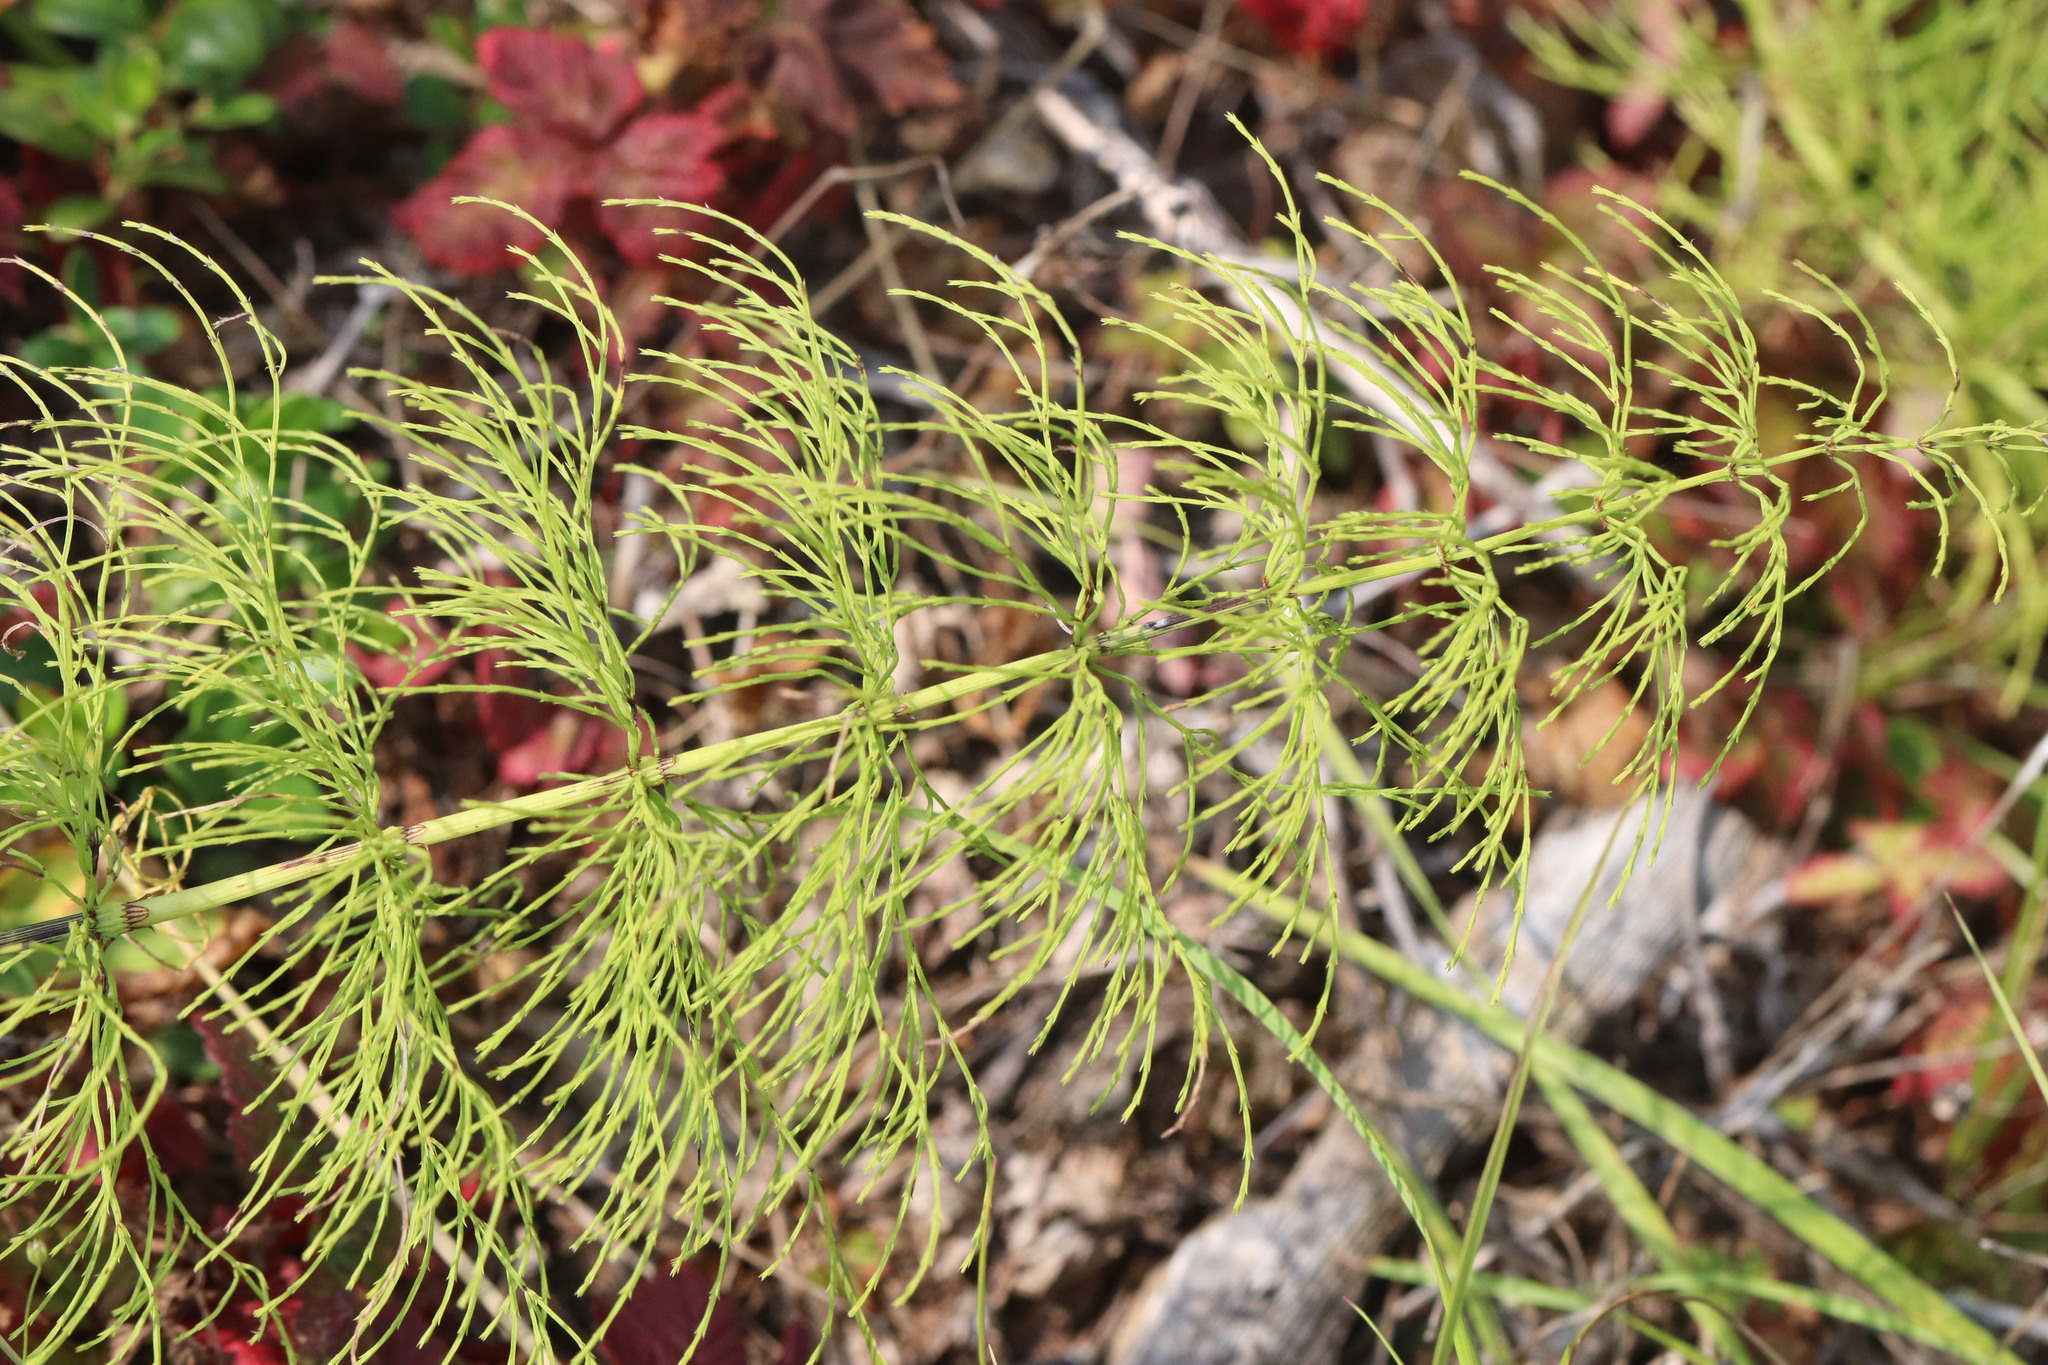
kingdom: Plantae
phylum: Tracheophyta
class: Polypodiopsida
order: Equisetales
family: Equisetaceae
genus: Equisetum
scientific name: Equisetum sylvaticum
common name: Wood horsetail
